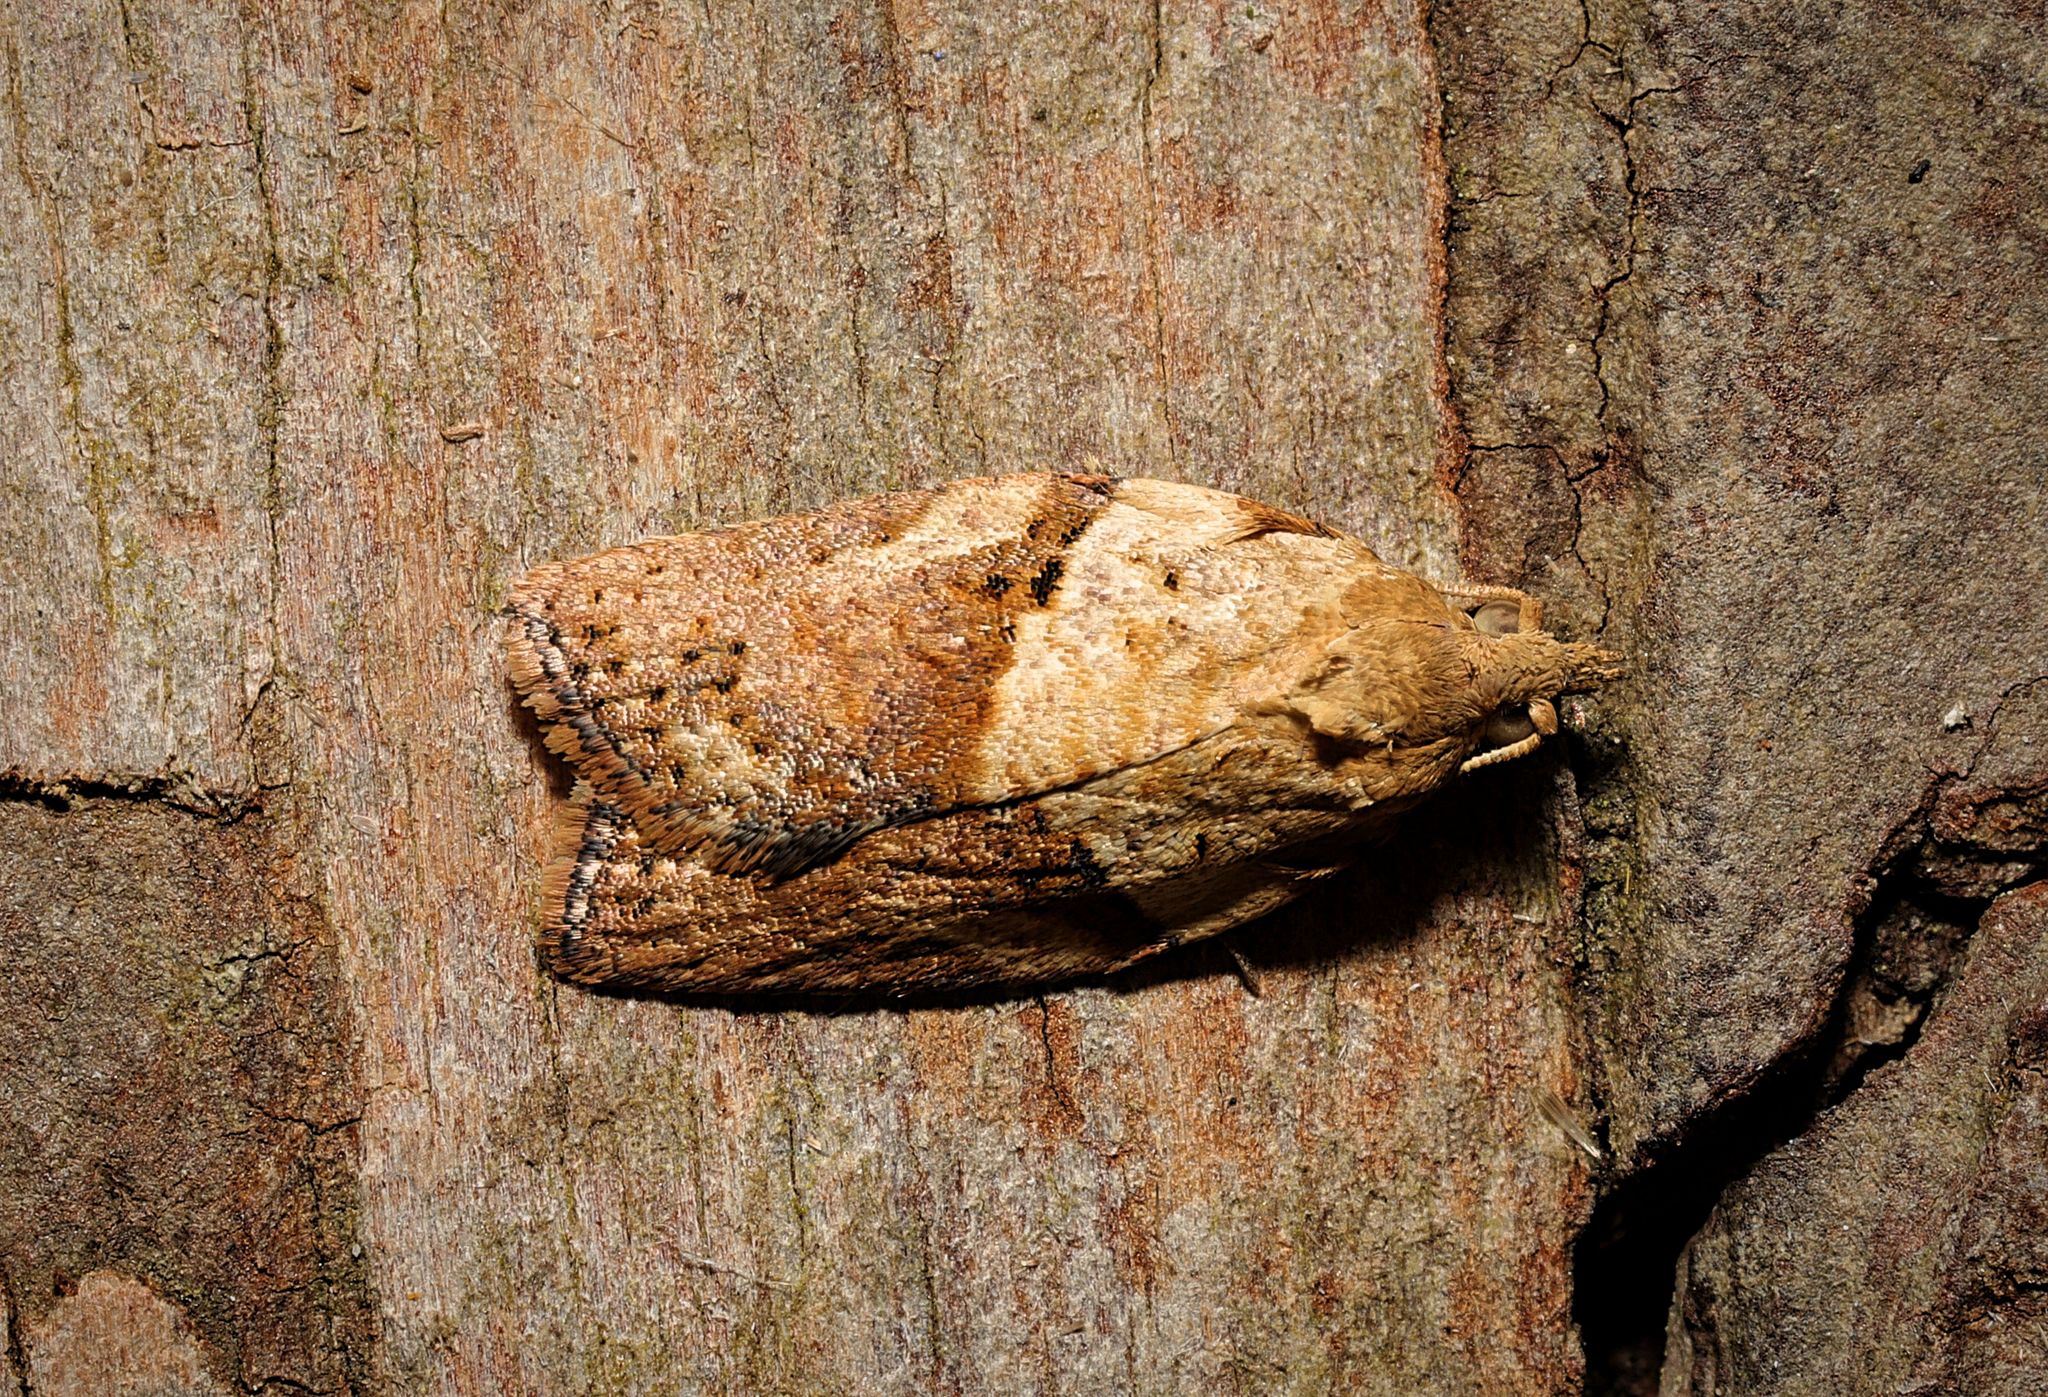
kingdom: Animalia
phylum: Arthropoda
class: Insecta
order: Lepidoptera
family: Tortricidae
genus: Epiphyas
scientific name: Epiphyas postvittana
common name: Light brown apple moth
